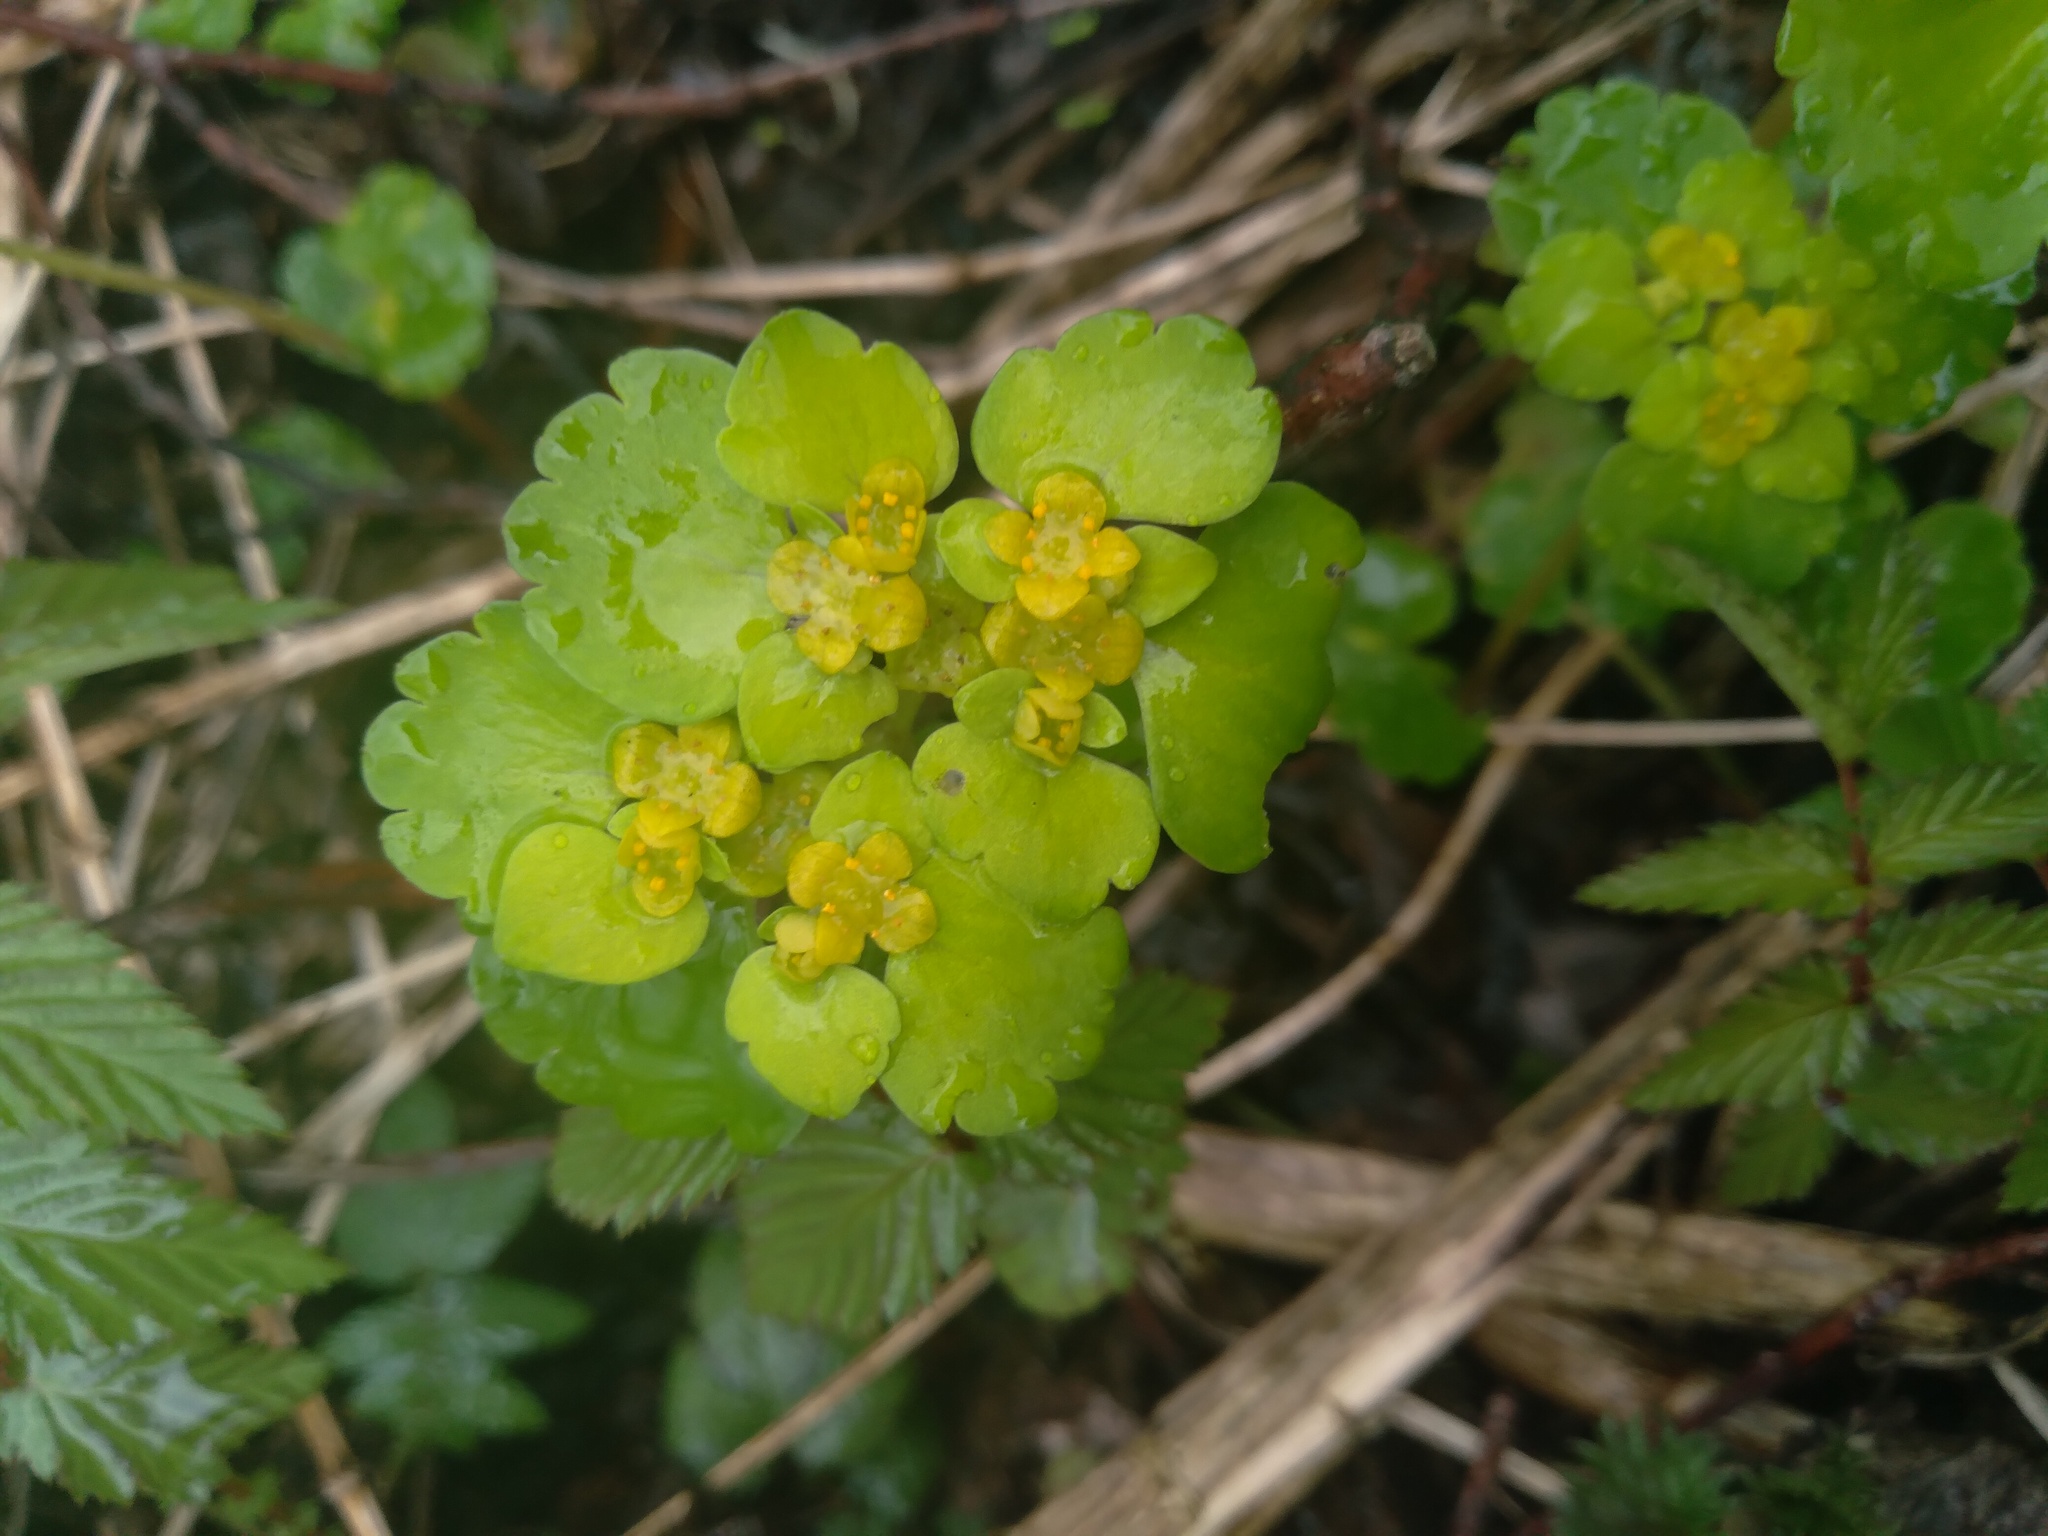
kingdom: Plantae
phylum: Tracheophyta
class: Magnoliopsida
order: Saxifragales
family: Saxifragaceae
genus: Chrysosplenium
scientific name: Chrysosplenium alternifolium
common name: Alternate-leaved golden-saxifrage
